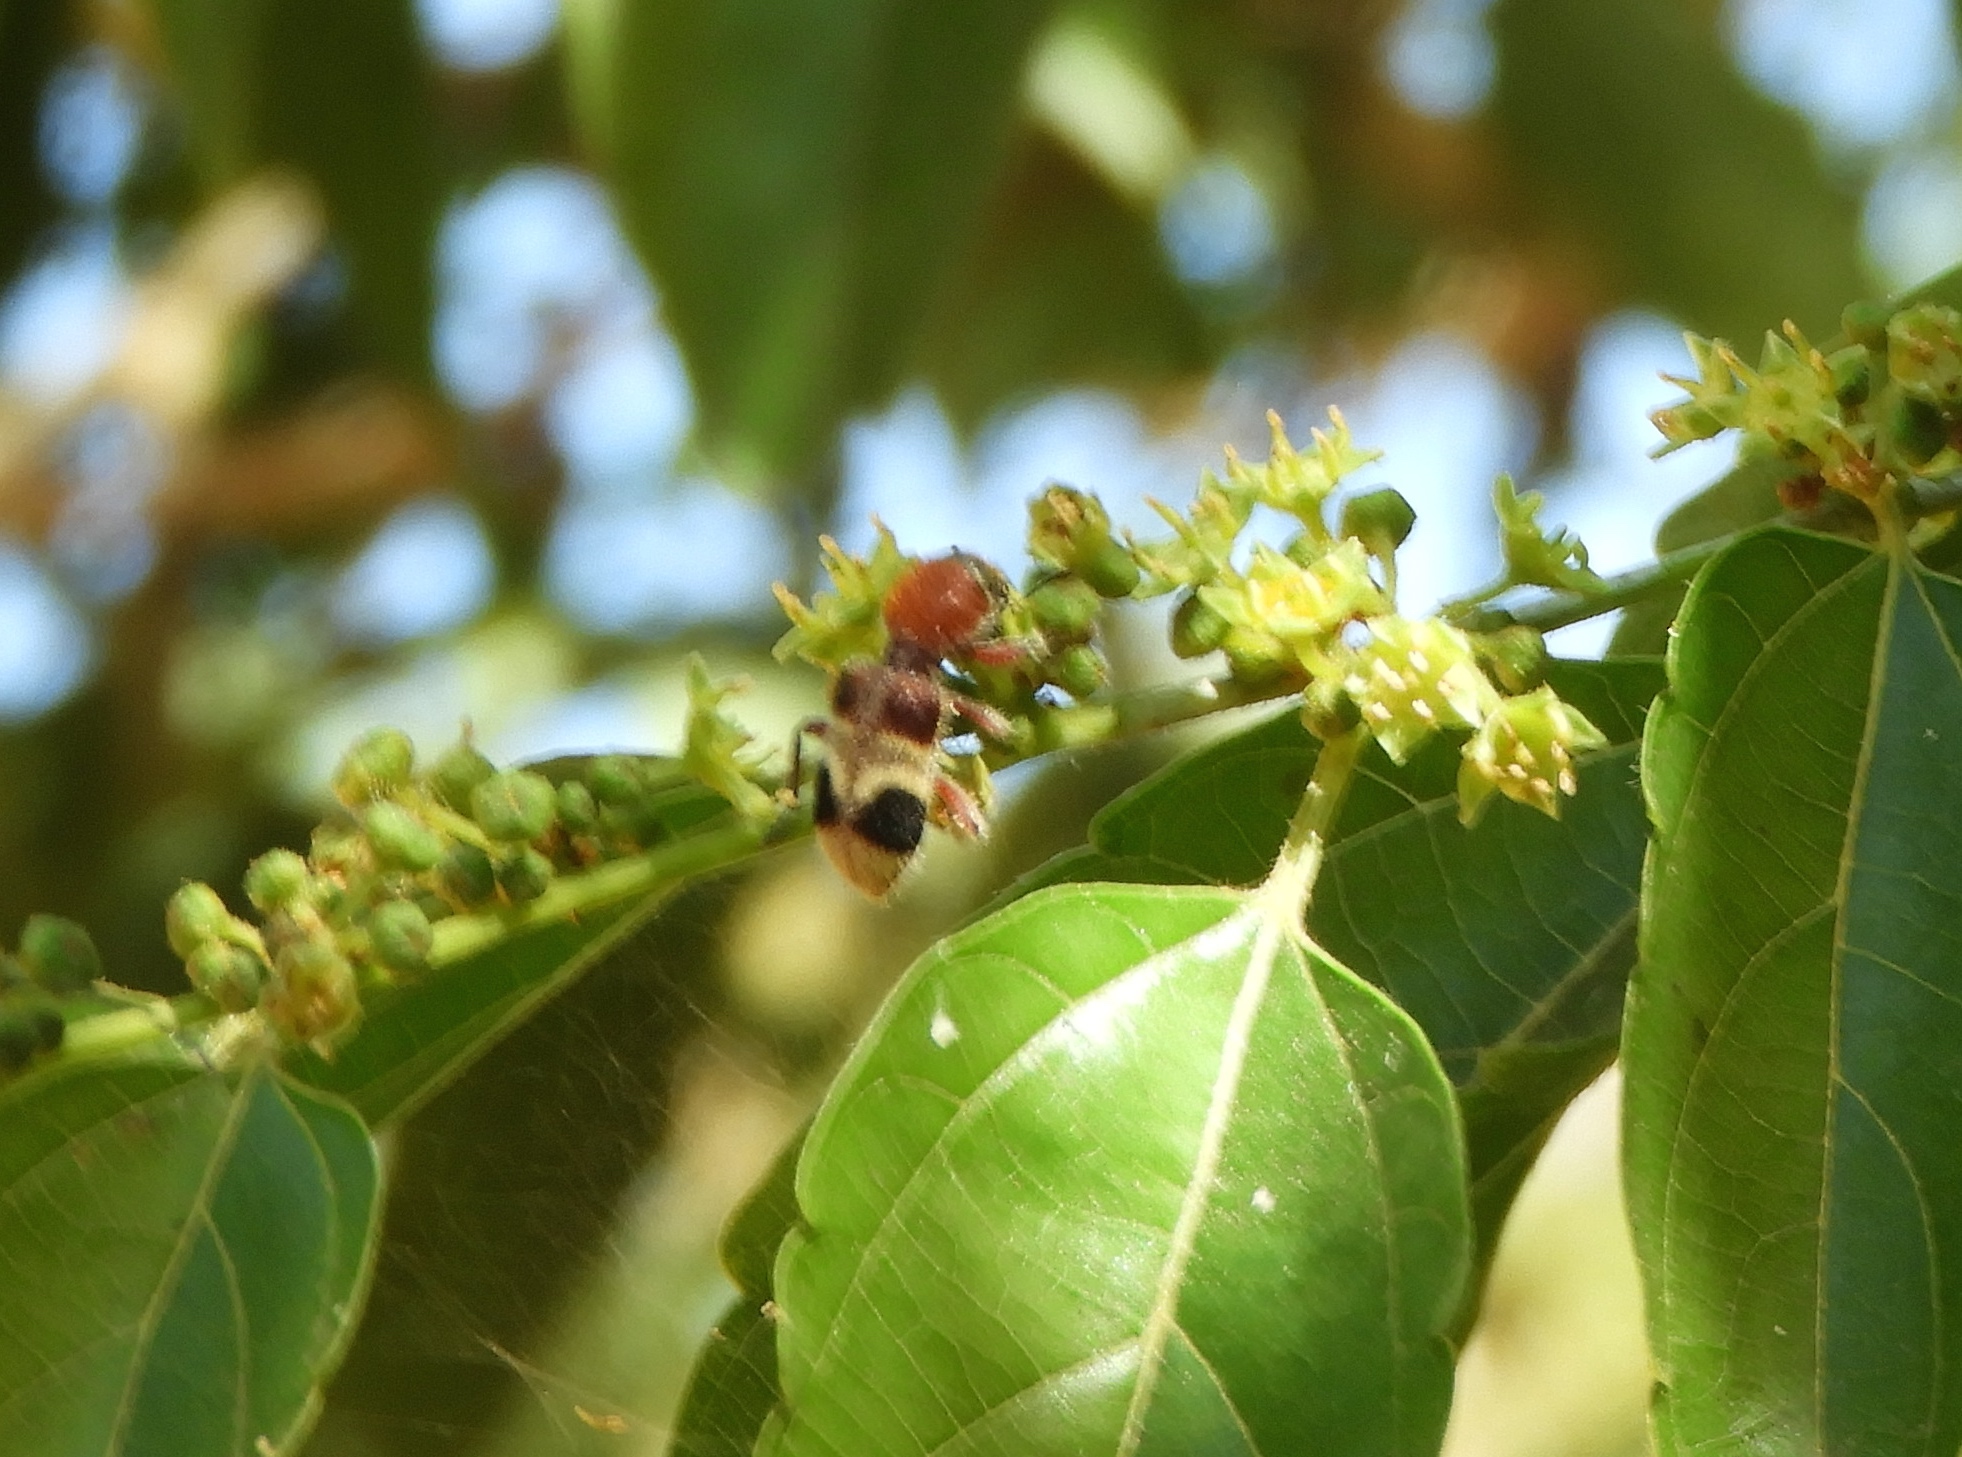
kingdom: Animalia
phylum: Arthropoda
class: Insecta
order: Coleoptera
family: Cleridae
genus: Enoclerus
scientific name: Enoclerus quadriguttatus
